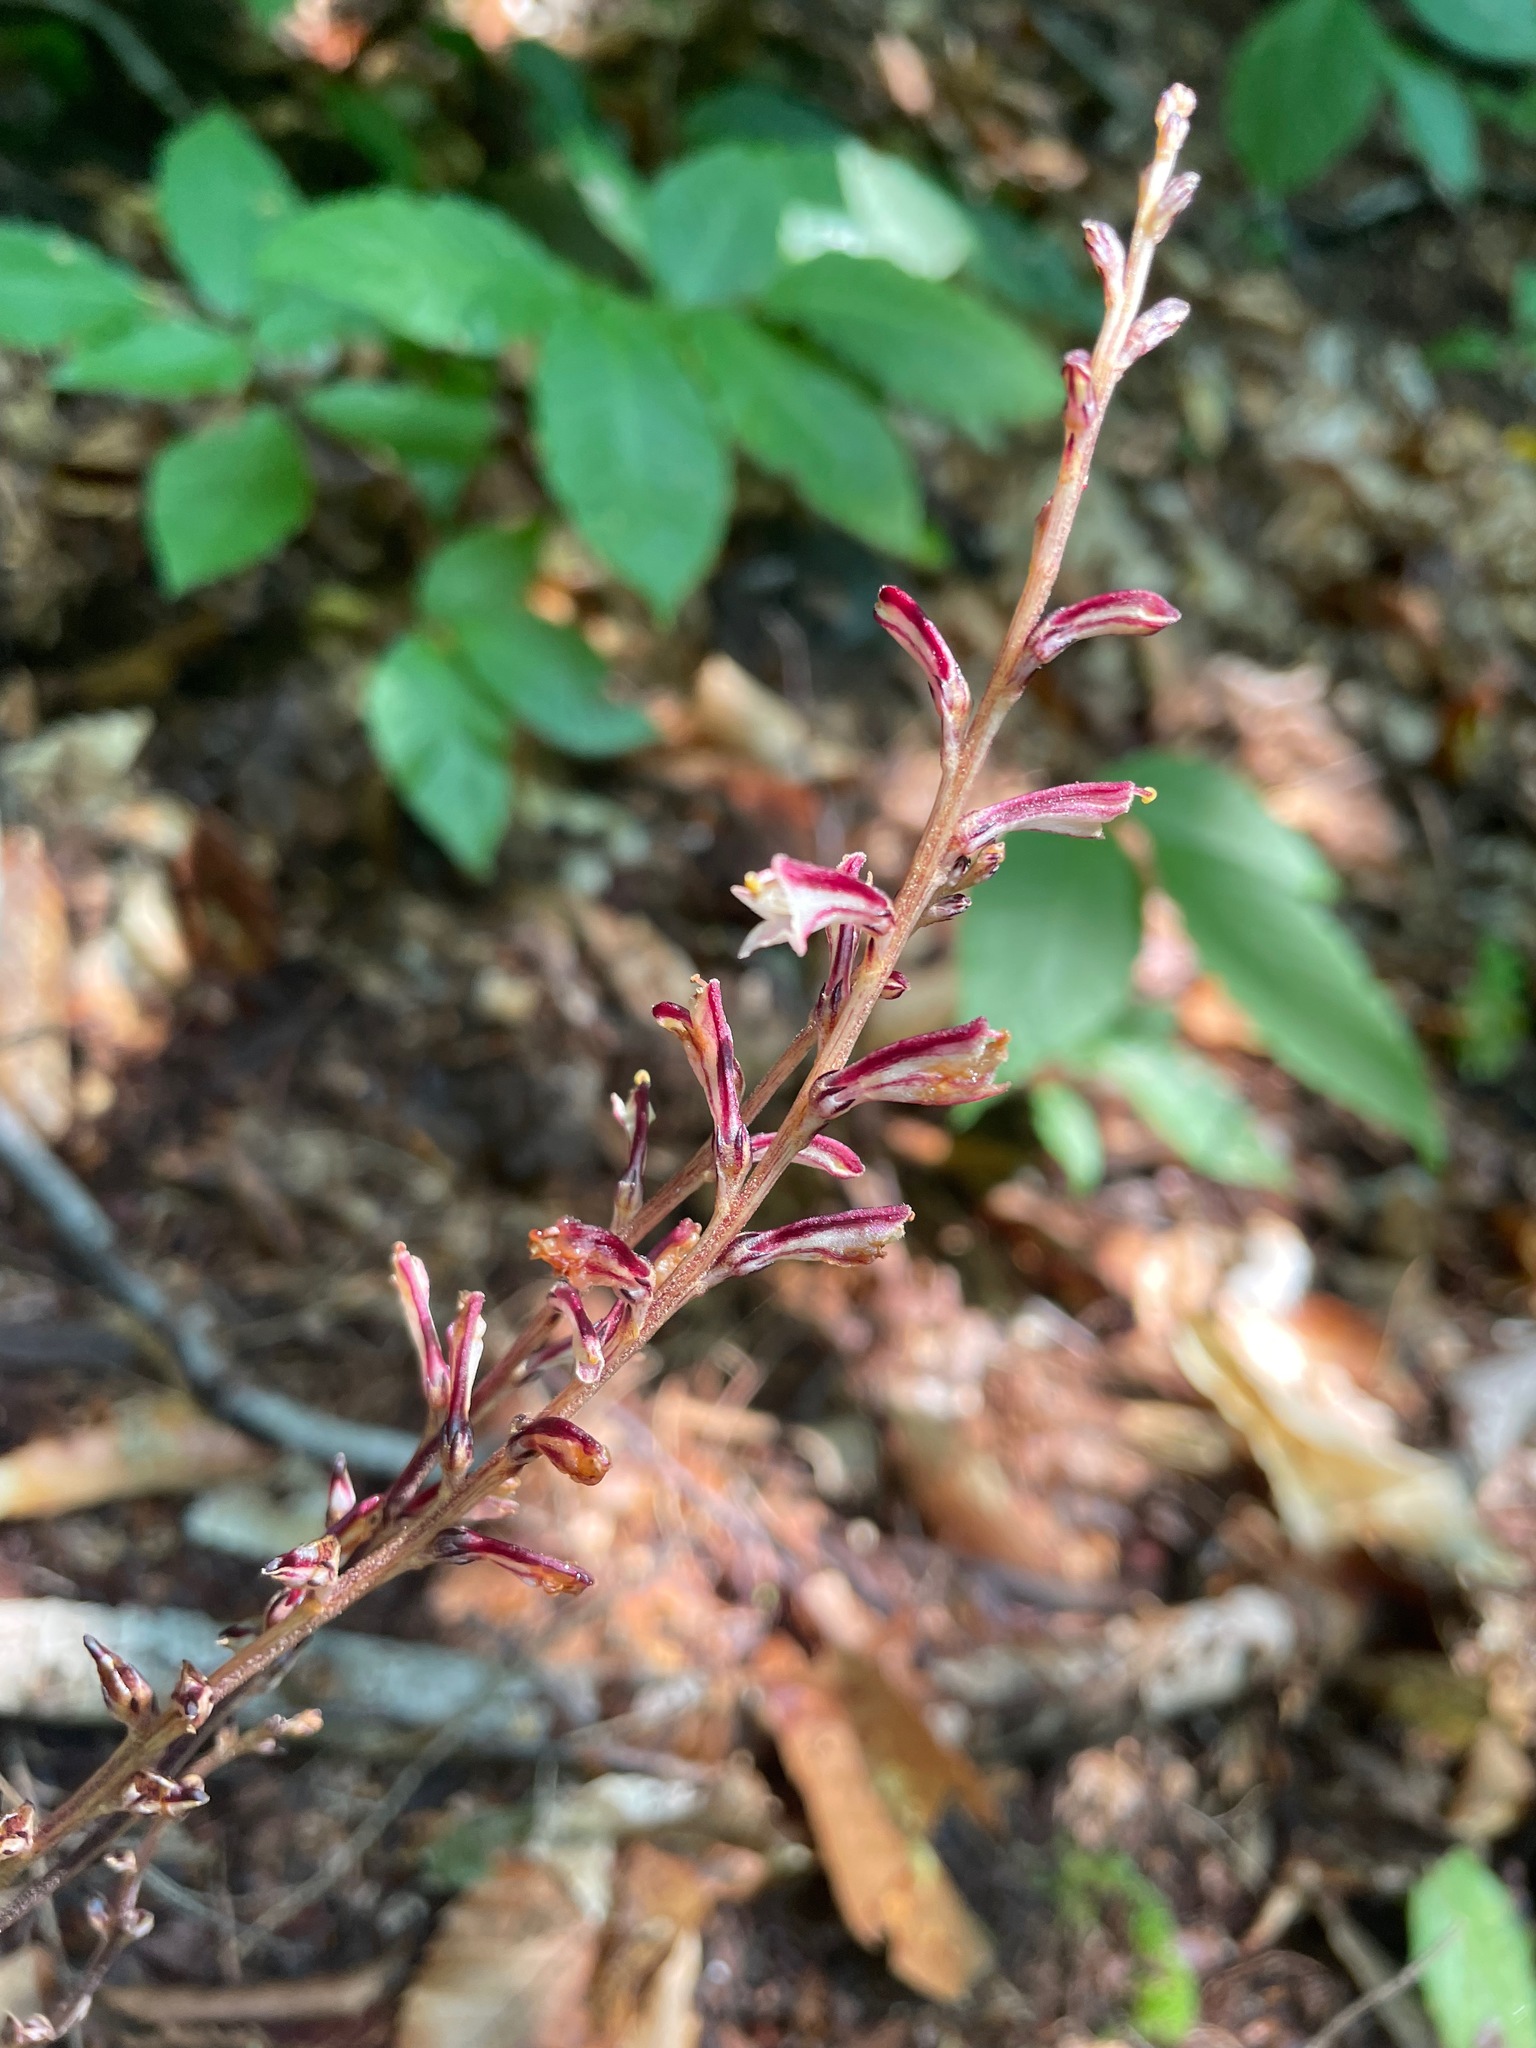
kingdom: Plantae
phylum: Tracheophyta
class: Magnoliopsida
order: Lamiales
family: Orobanchaceae
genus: Epifagus
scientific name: Epifagus virginiana
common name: Beechdrops
